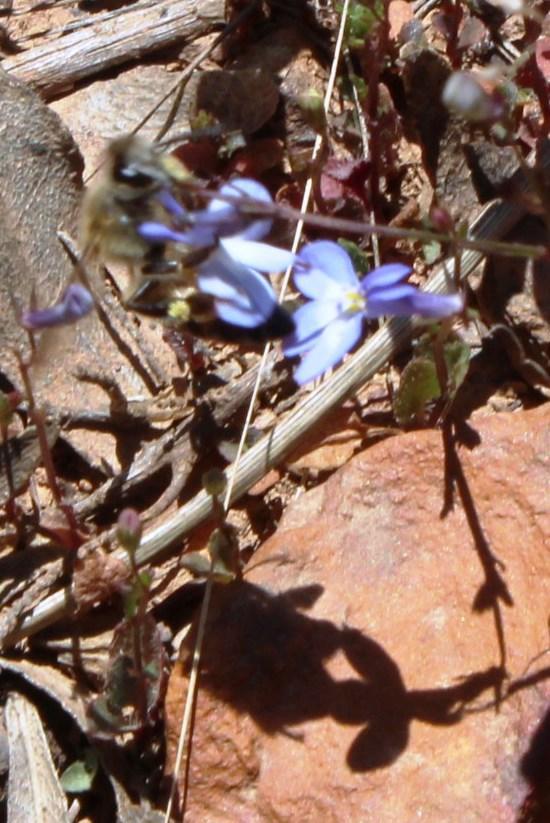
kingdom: Animalia
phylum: Arthropoda
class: Insecta
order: Hymenoptera
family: Apidae
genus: Apis
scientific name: Apis mellifera
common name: Honey bee
